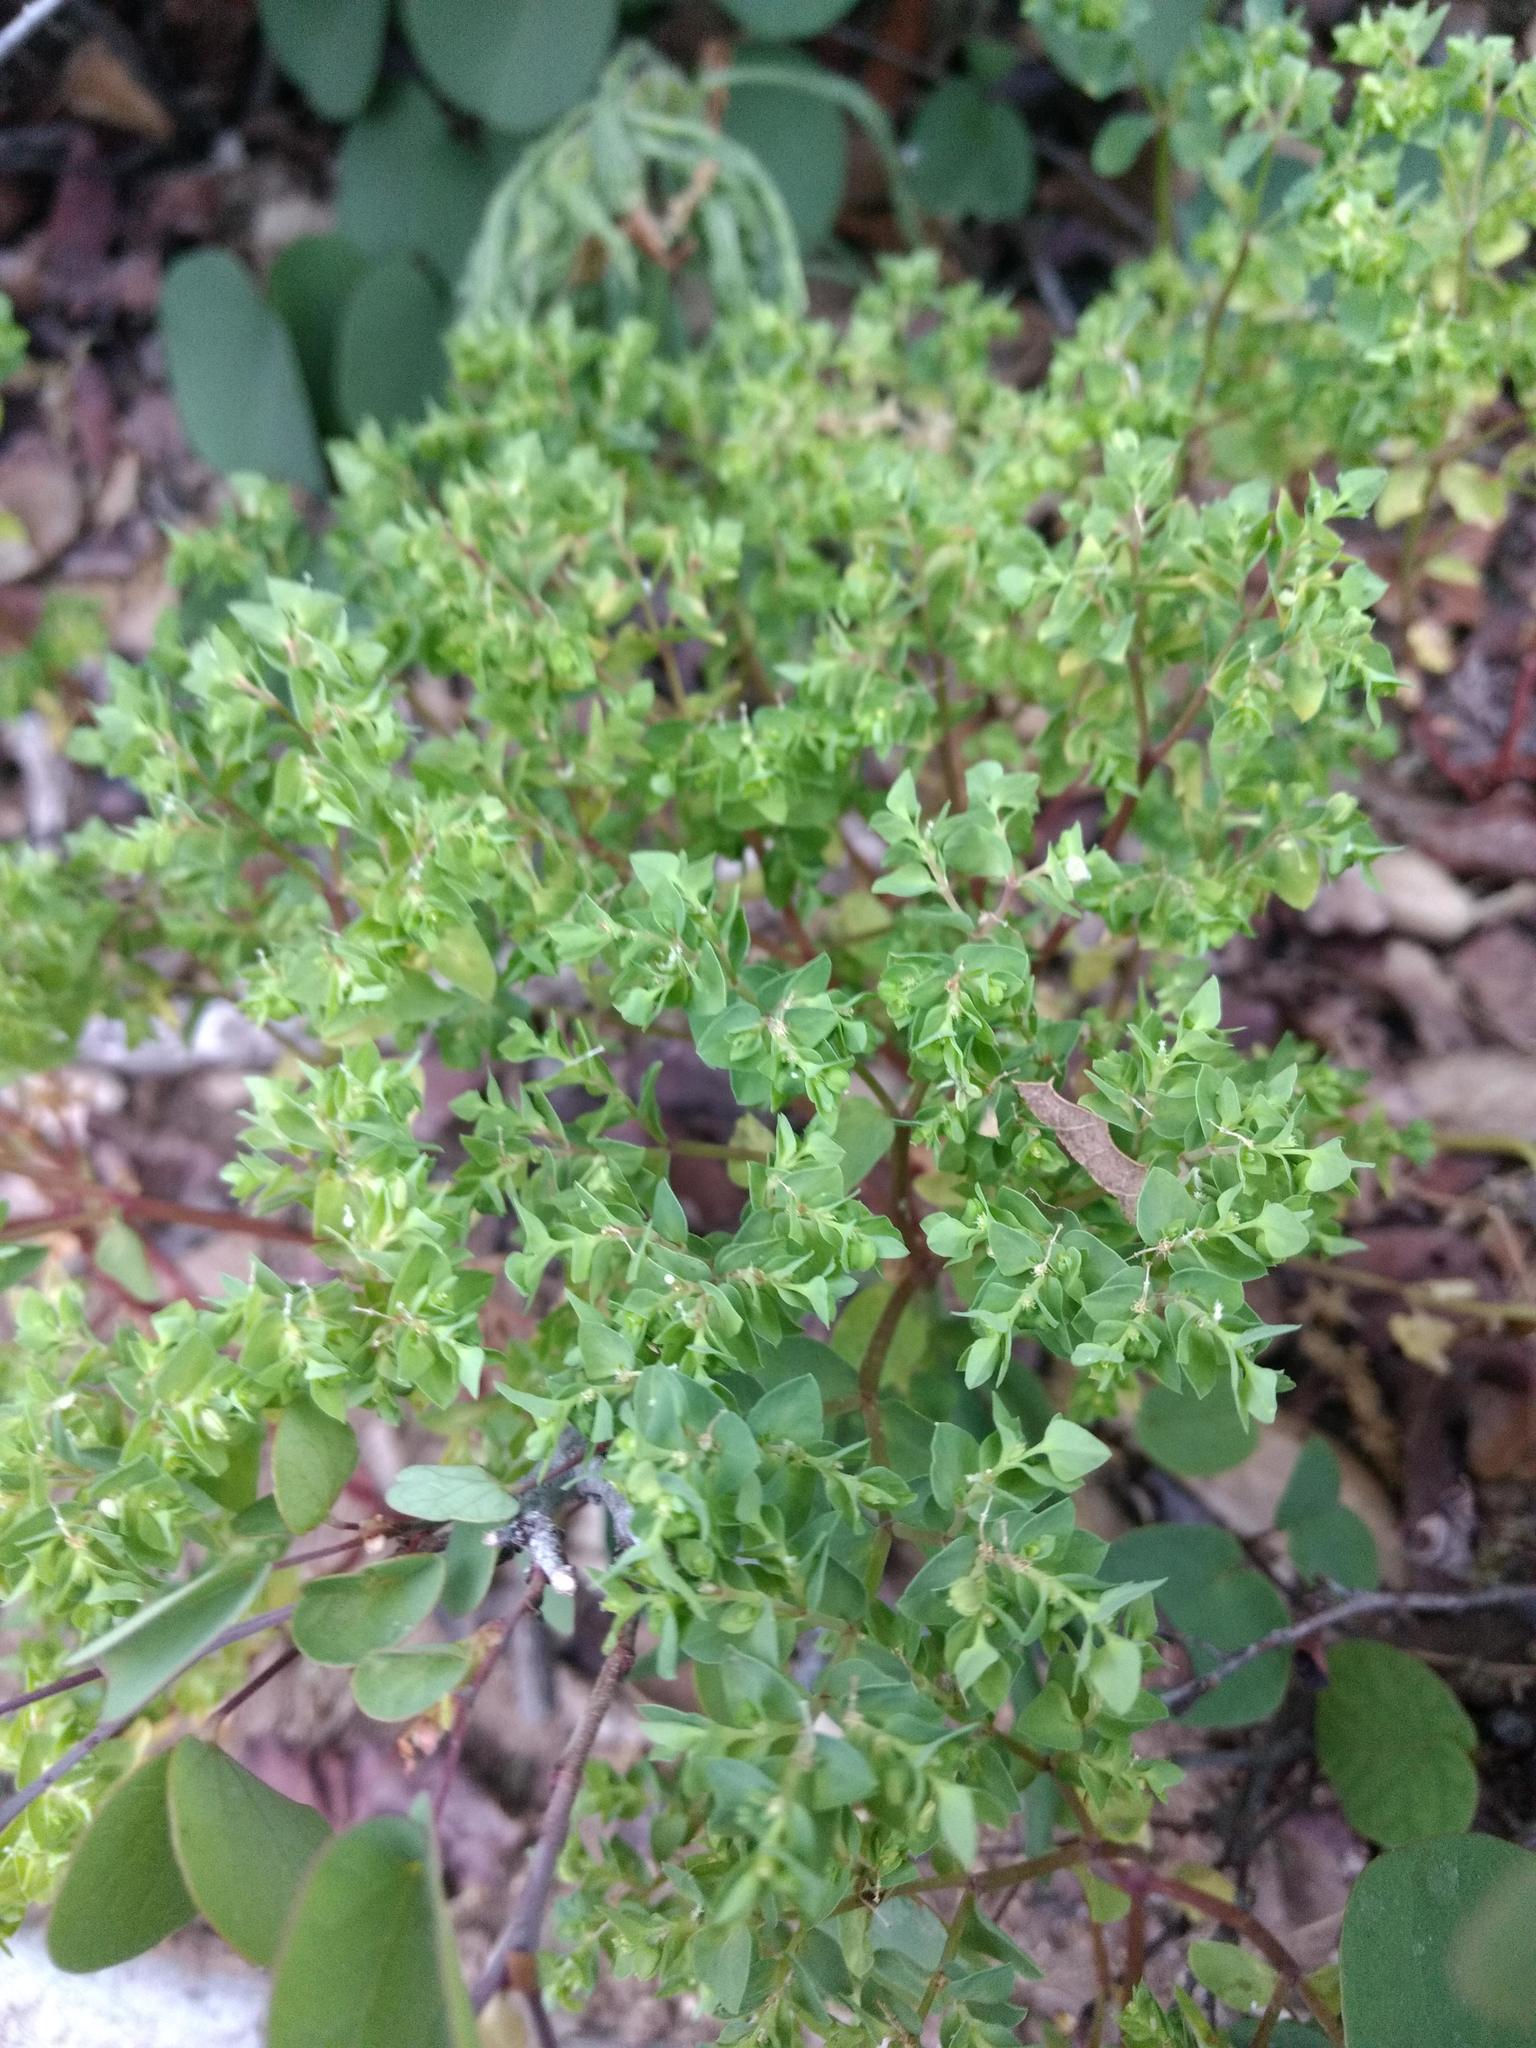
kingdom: Plantae
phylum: Tracheophyta
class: Magnoliopsida
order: Malpighiales
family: Euphorbiaceae
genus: Euphorbia
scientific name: Euphorbia peplus
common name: Petty spurge
